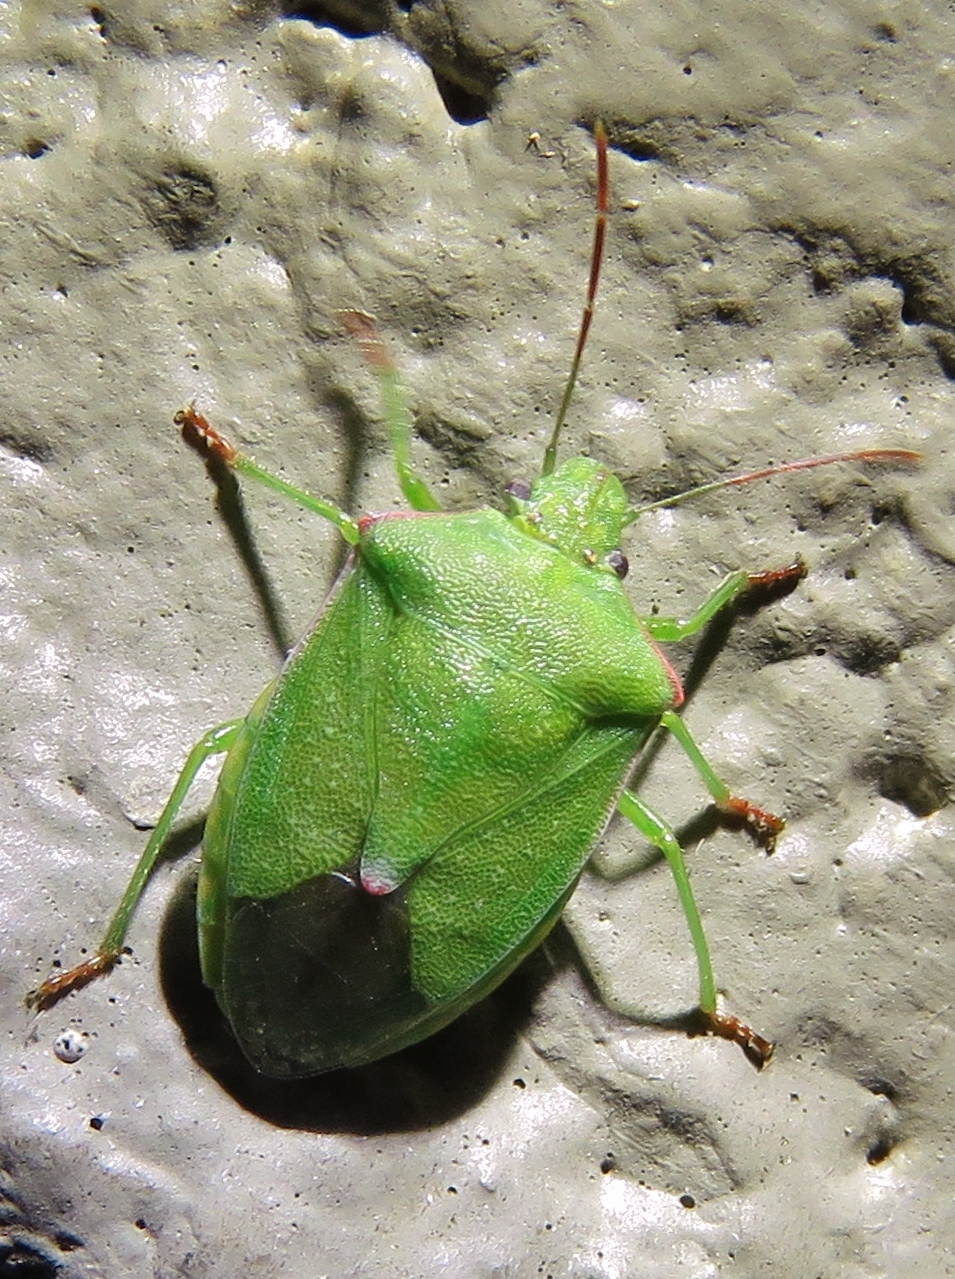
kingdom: Animalia
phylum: Arthropoda
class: Insecta
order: Hemiptera
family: Pentatomidae
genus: Thyanta
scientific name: Thyanta custator
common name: Stink bug
